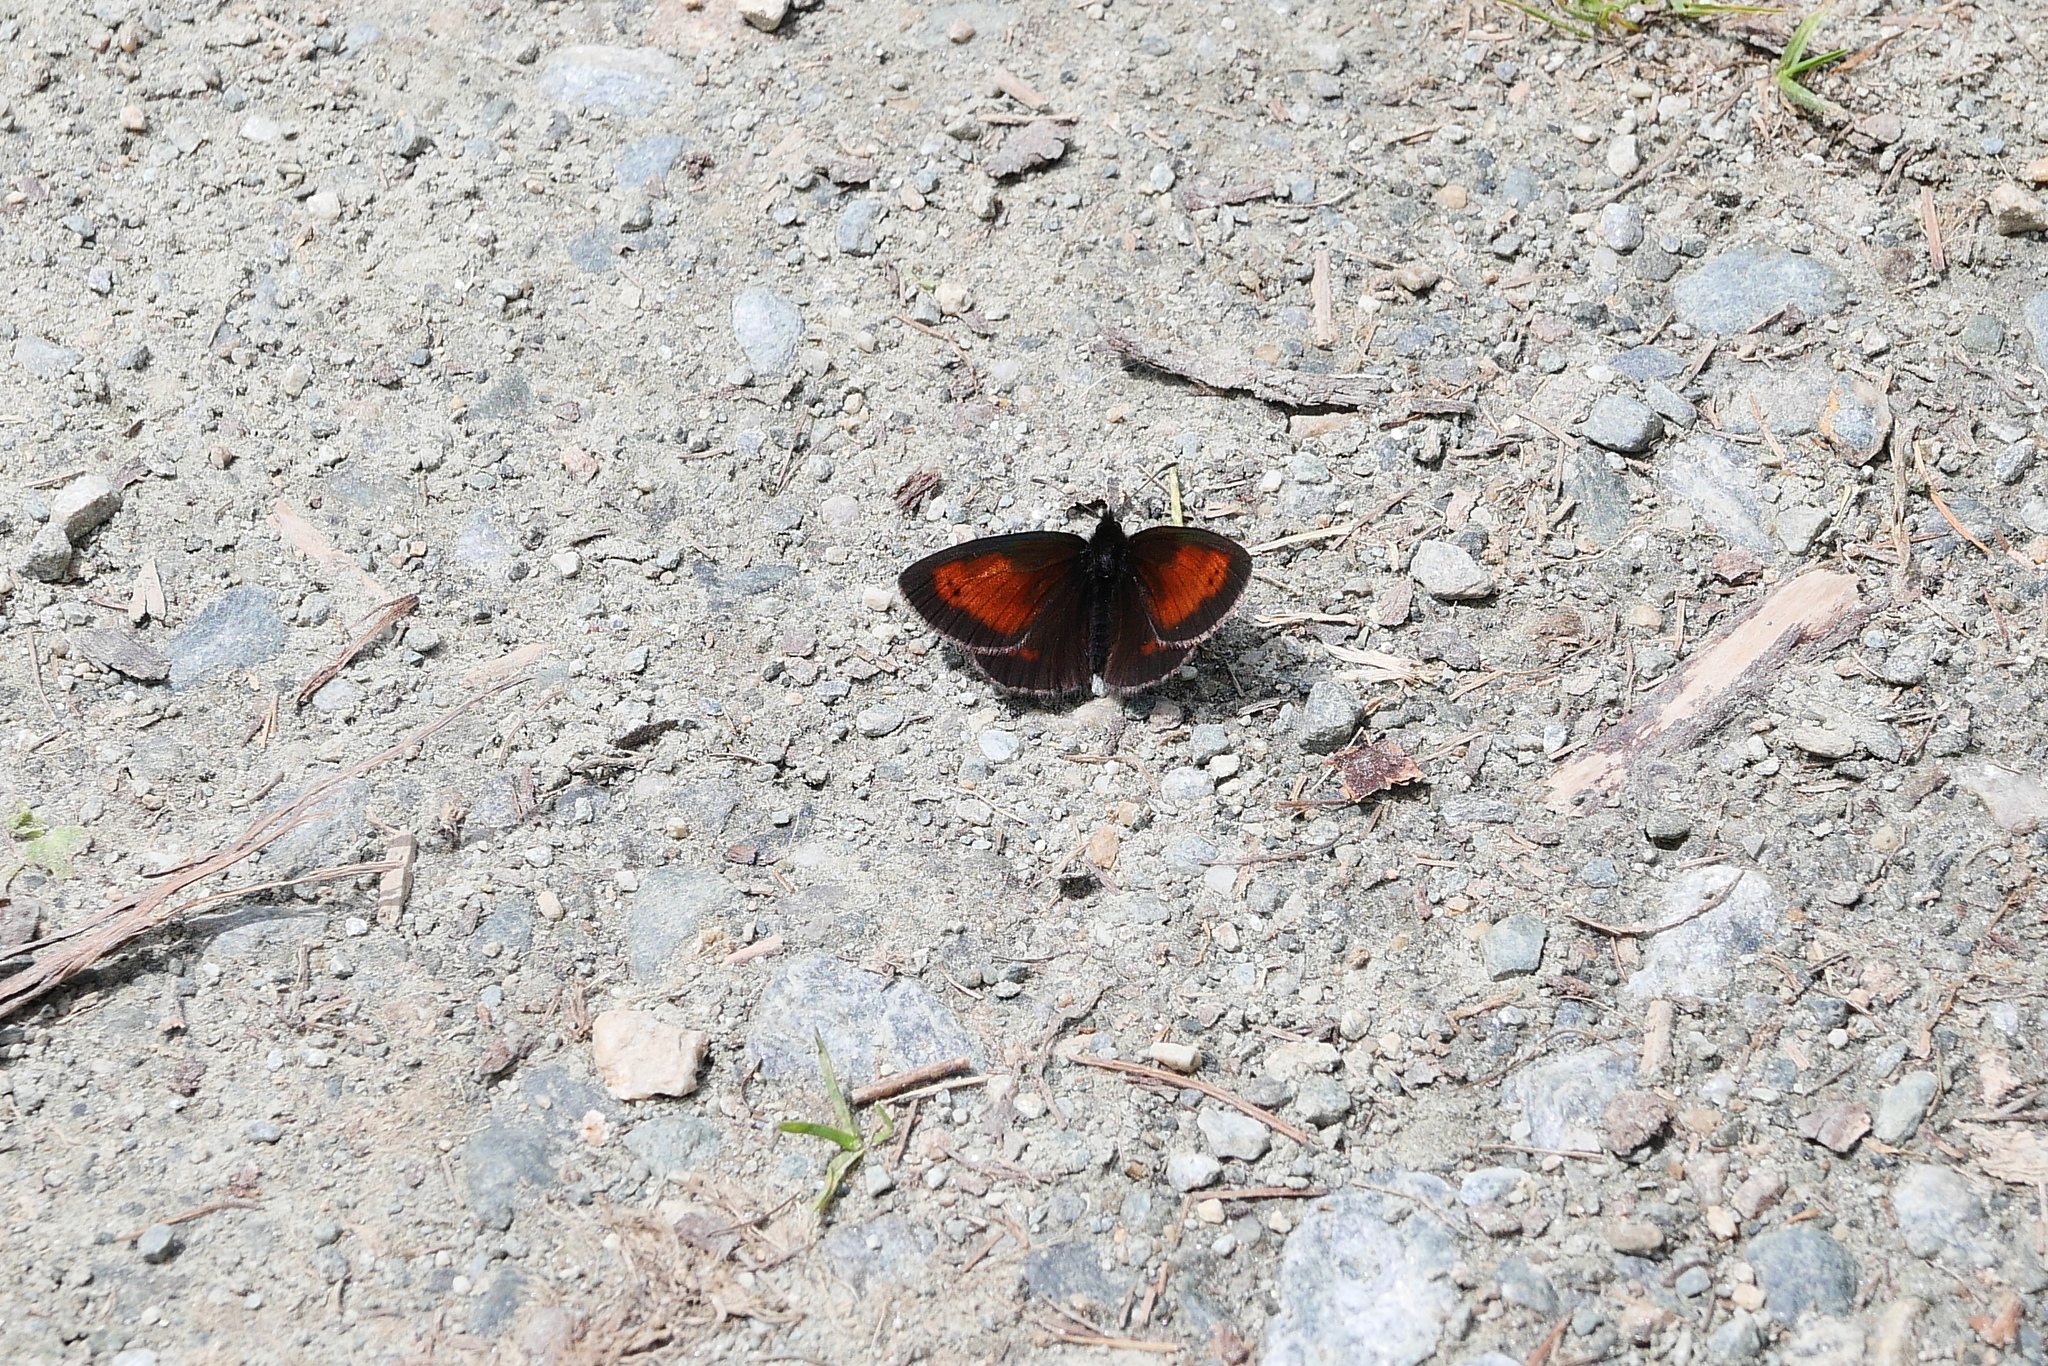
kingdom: Animalia
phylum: Arthropoda
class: Insecta
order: Lepidoptera
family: Nymphalidae
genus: Erebia
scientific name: Erebia mnestra
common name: Mnestra’s ringlet
